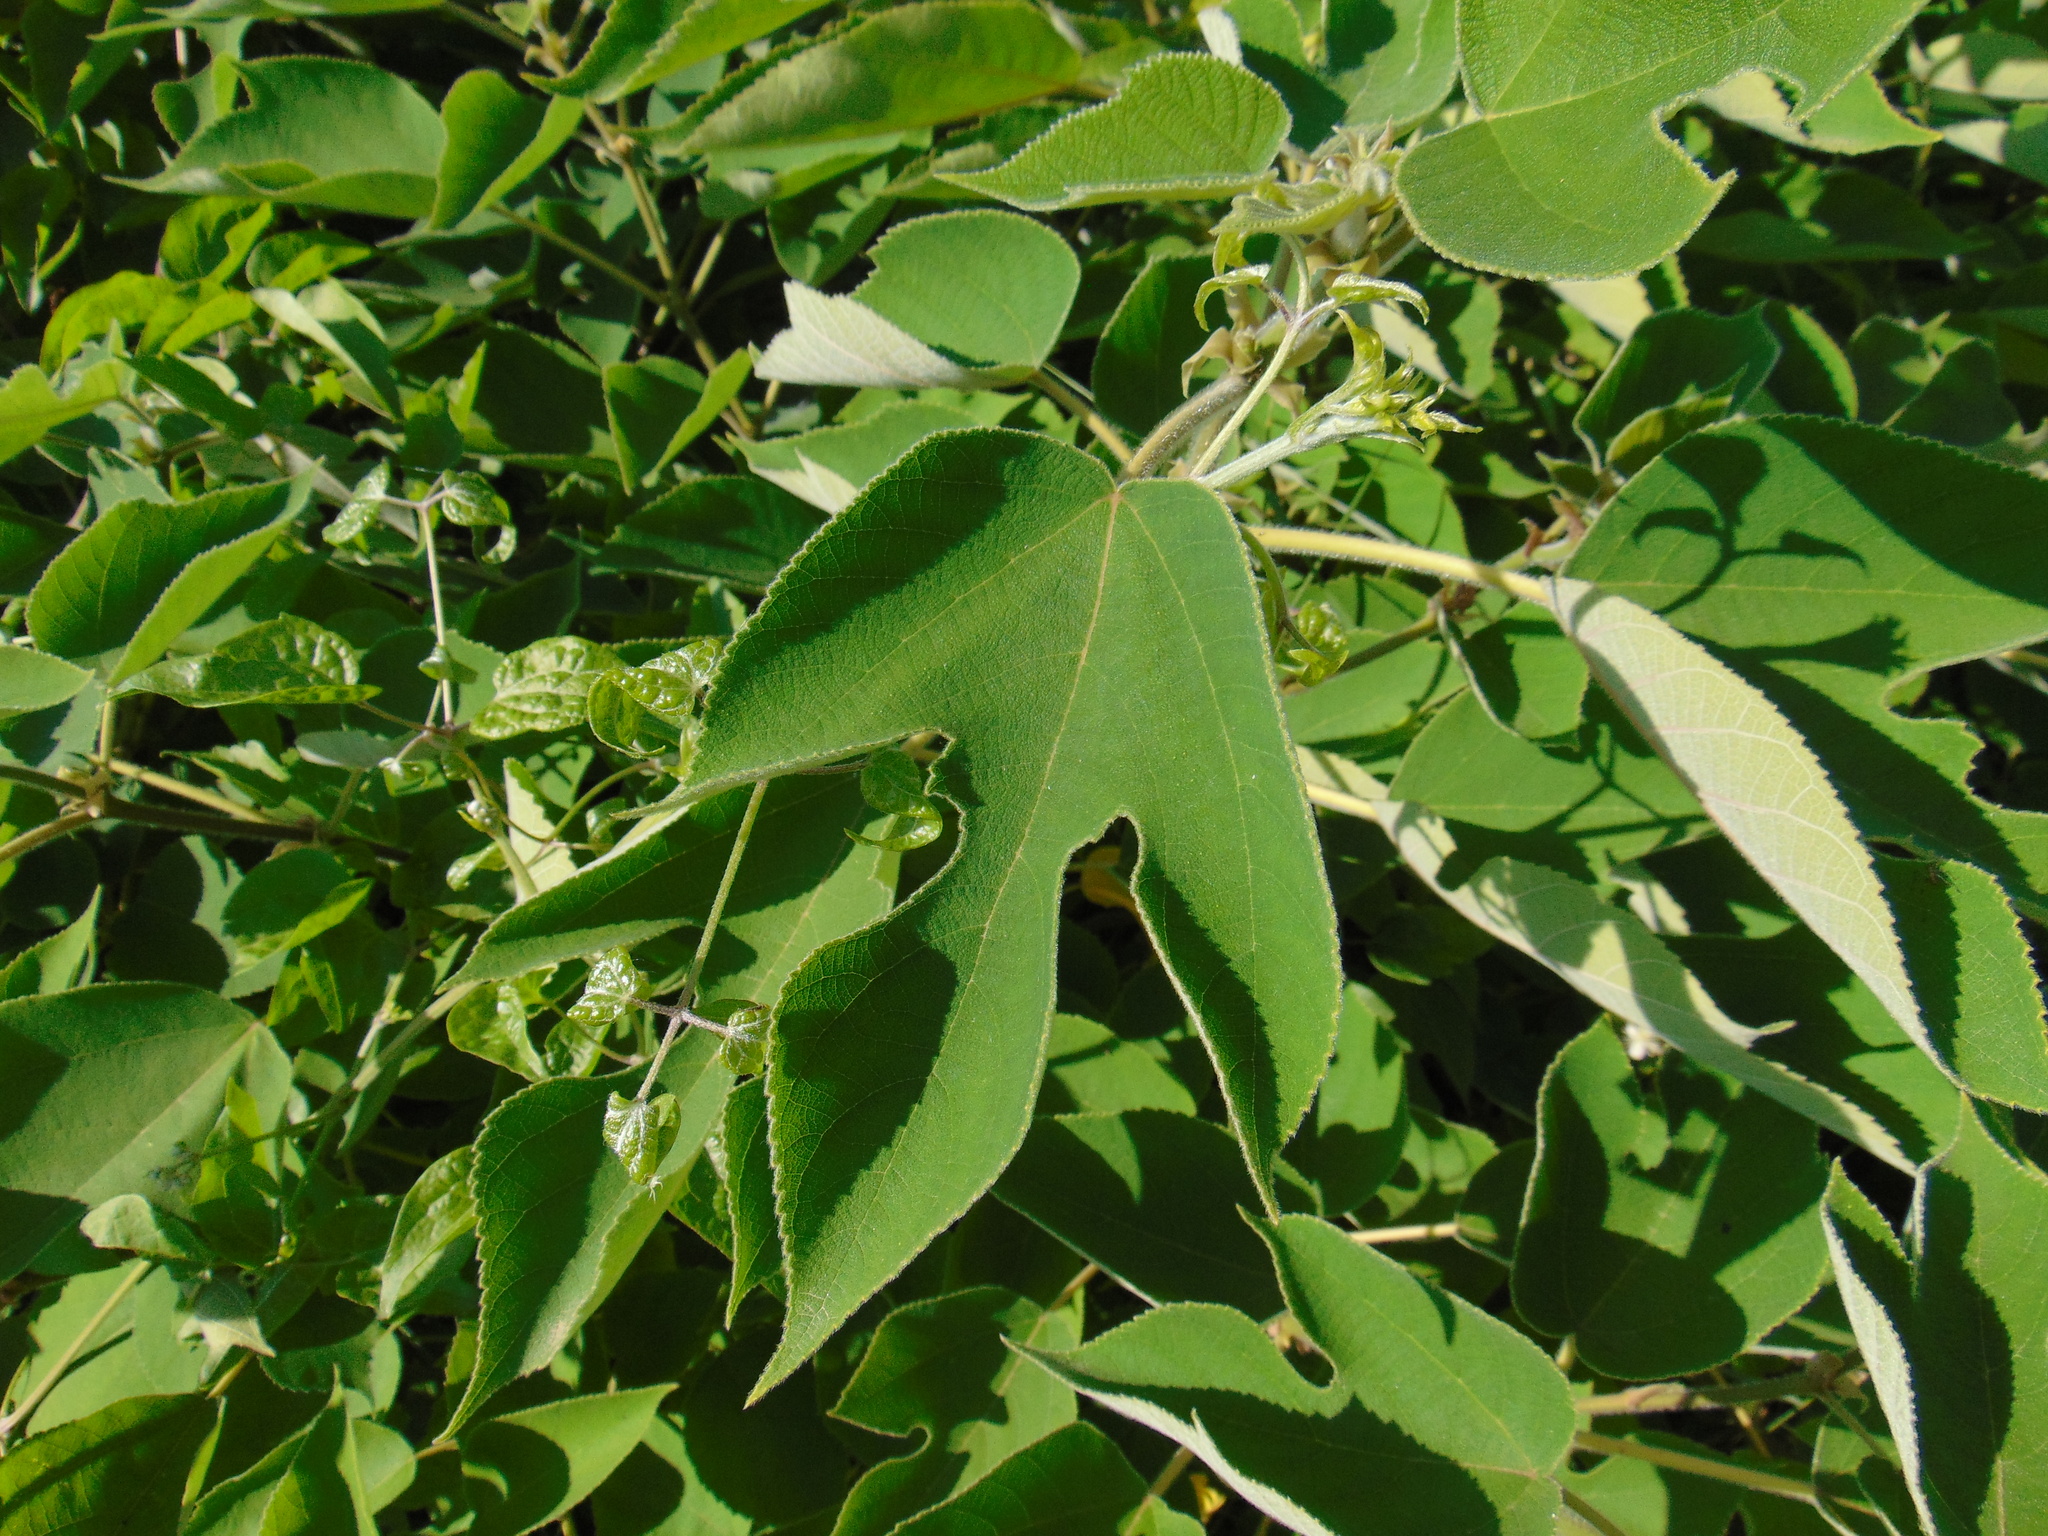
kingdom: Plantae
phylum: Tracheophyta
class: Magnoliopsida
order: Rosales
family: Moraceae
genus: Broussonetia
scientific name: Broussonetia papyrifera
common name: Paper mulberry
